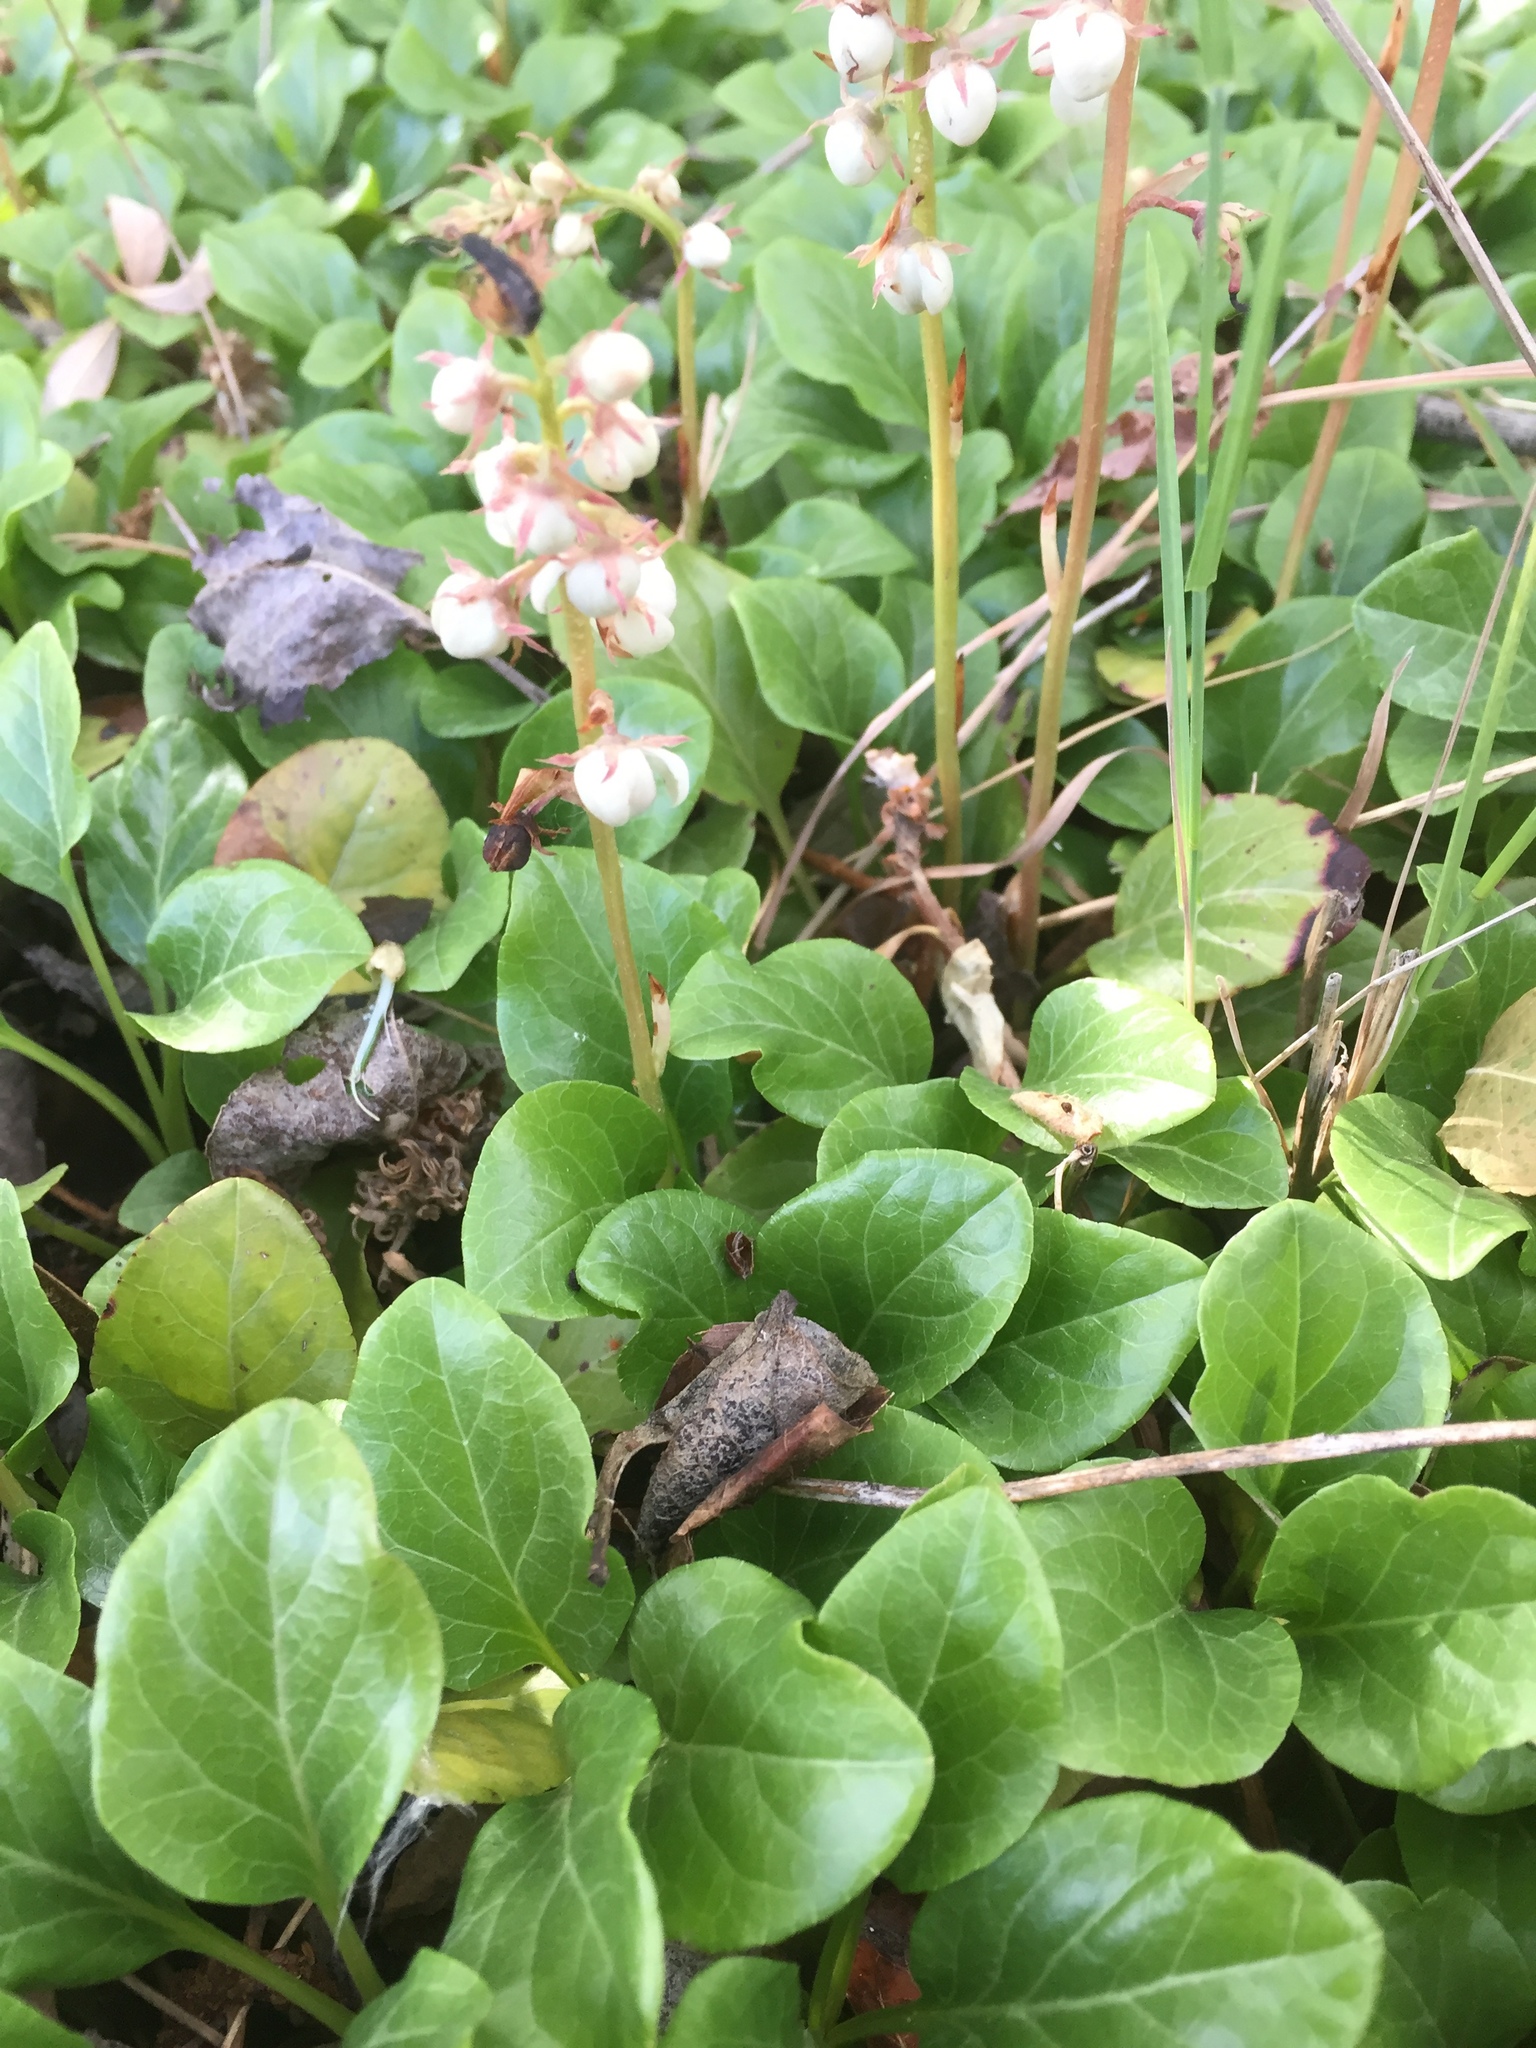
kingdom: Animalia
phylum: Arthropoda
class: Insecta
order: Coleoptera
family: Lampyridae
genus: Phosphaenus
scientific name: Phosphaenus hemipterus
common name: Short-winged firefly
